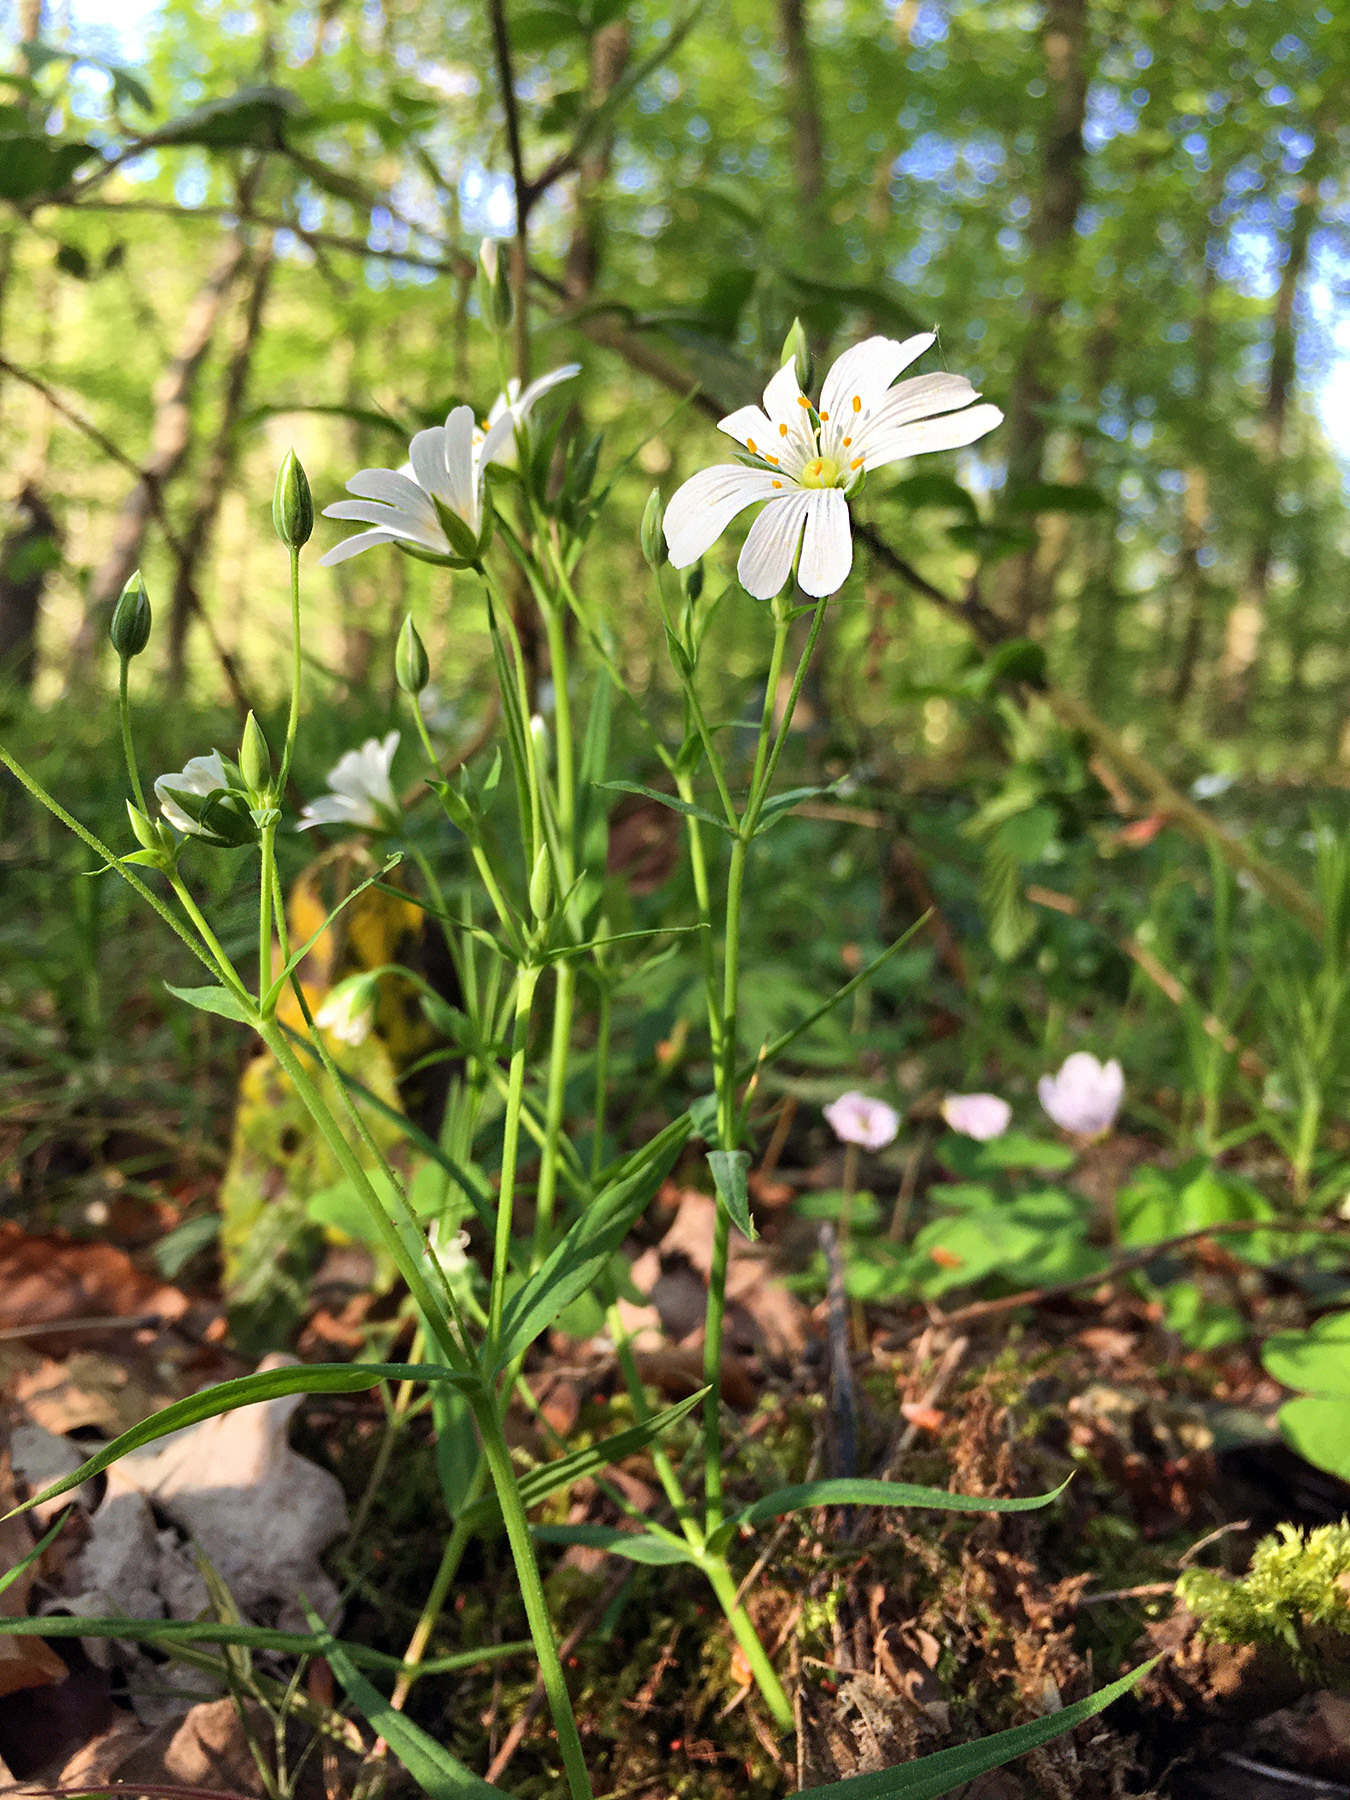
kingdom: Plantae
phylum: Tracheophyta
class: Magnoliopsida
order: Caryophyllales
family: Caryophyllaceae
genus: Rabelera
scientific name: Rabelera holostea
